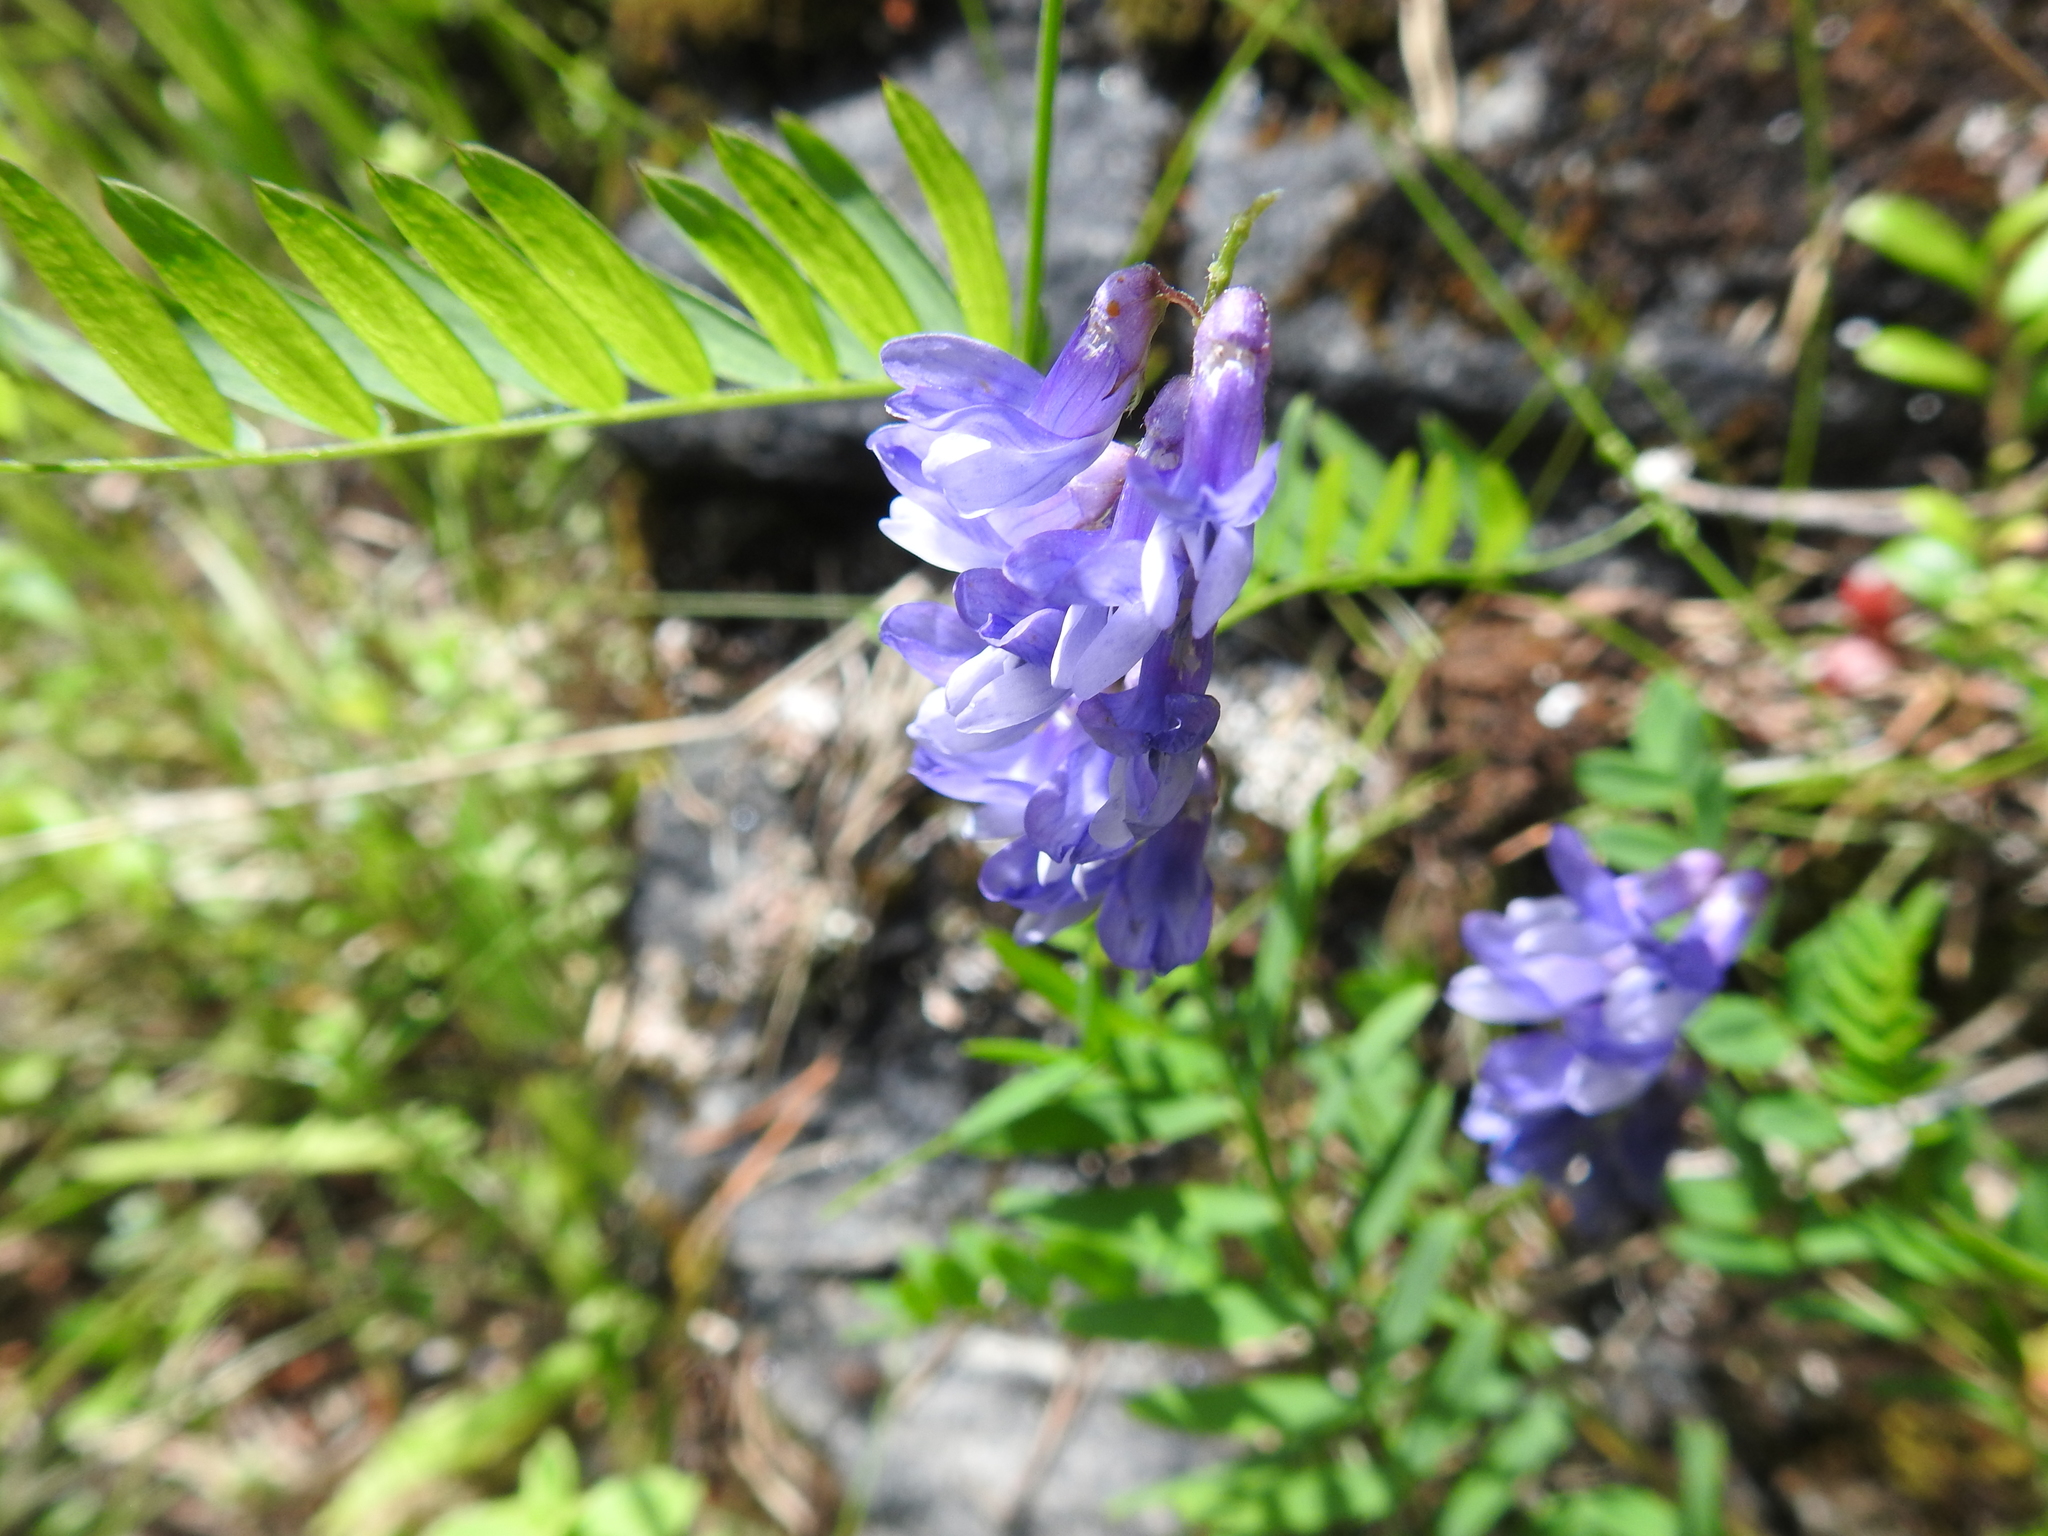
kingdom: Plantae
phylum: Tracheophyta
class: Magnoliopsida
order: Fabales
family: Fabaceae
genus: Vicia
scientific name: Vicia cracca
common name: Bird vetch
